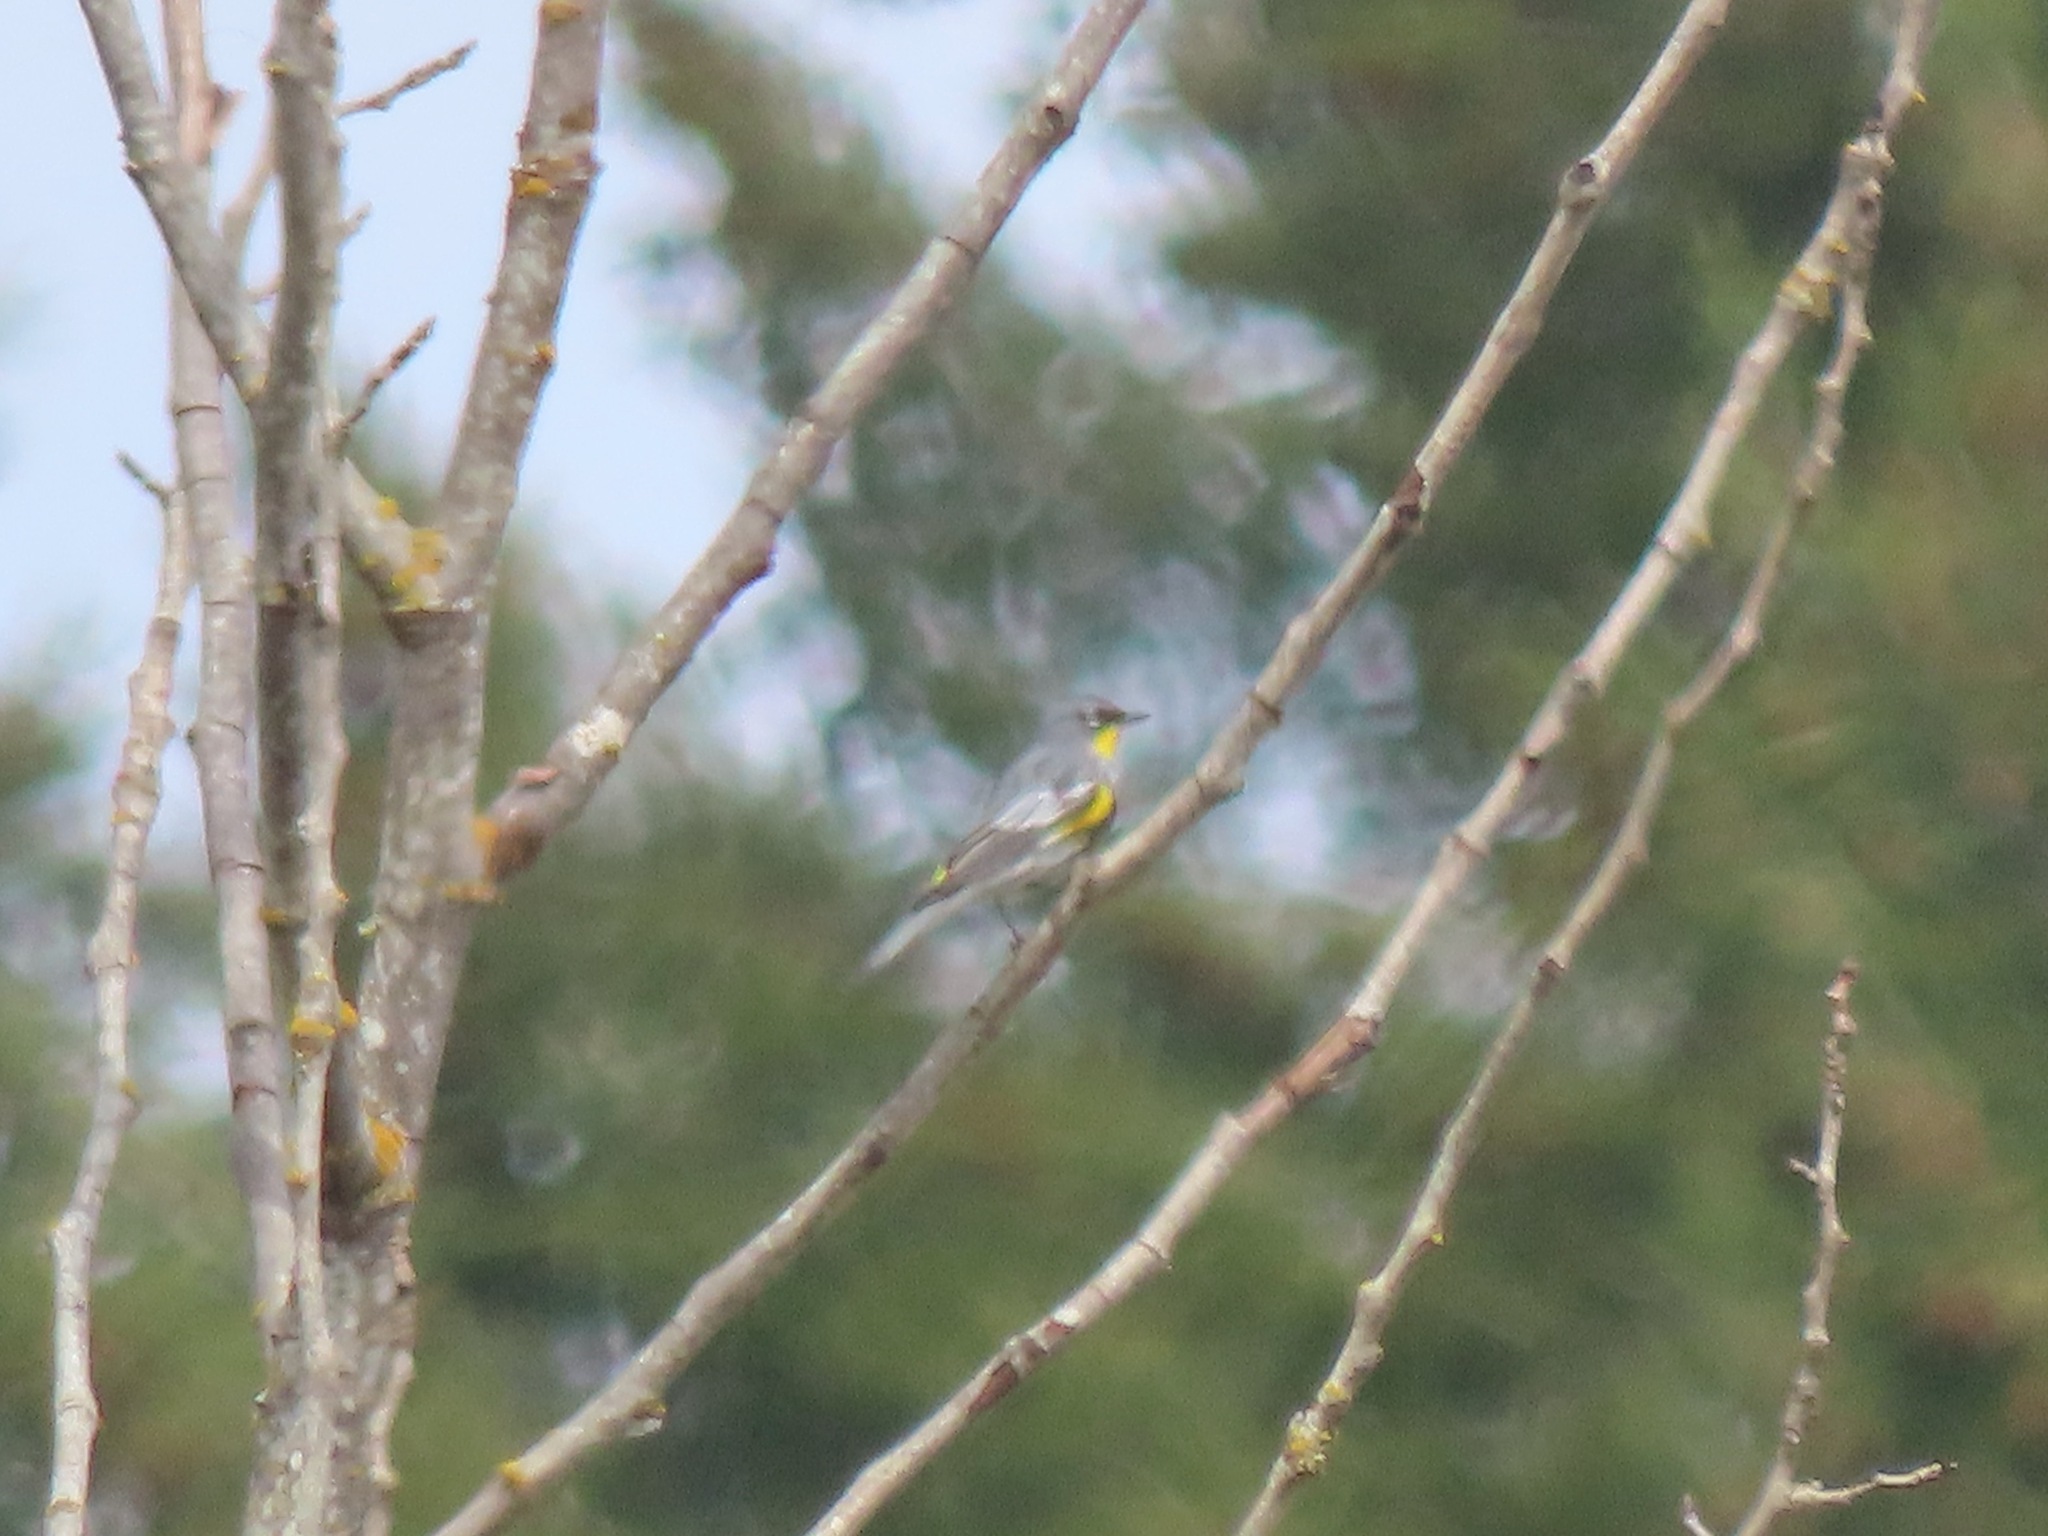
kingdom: Animalia
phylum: Chordata
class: Aves
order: Passeriformes
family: Parulidae
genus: Setophaga
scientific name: Setophaga auduboni
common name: Audubon's warbler
